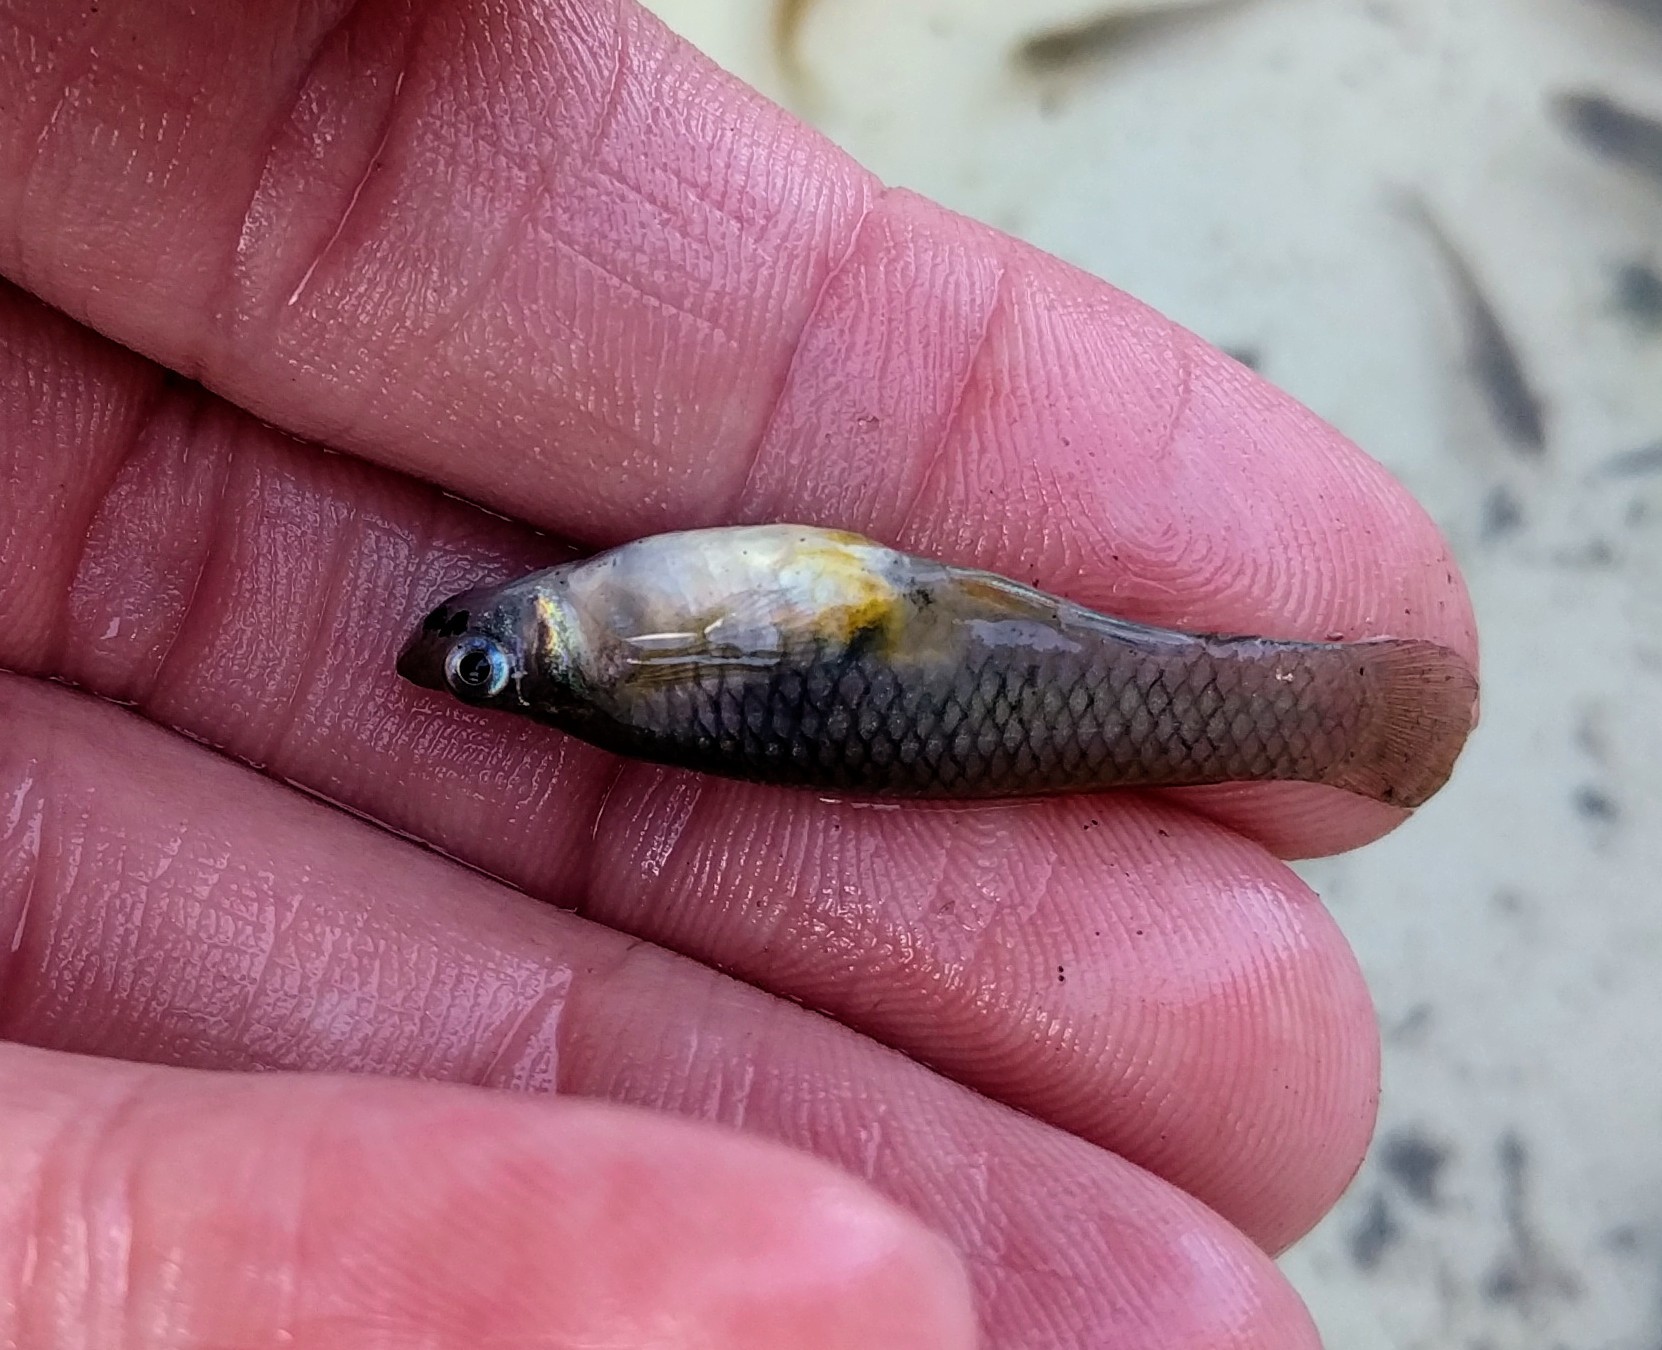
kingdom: Animalia
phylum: Chordata
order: Cyprinodontiformes
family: Poeciliidae
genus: Gambusia
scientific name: Gambusia affinis
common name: Mosquitofish
